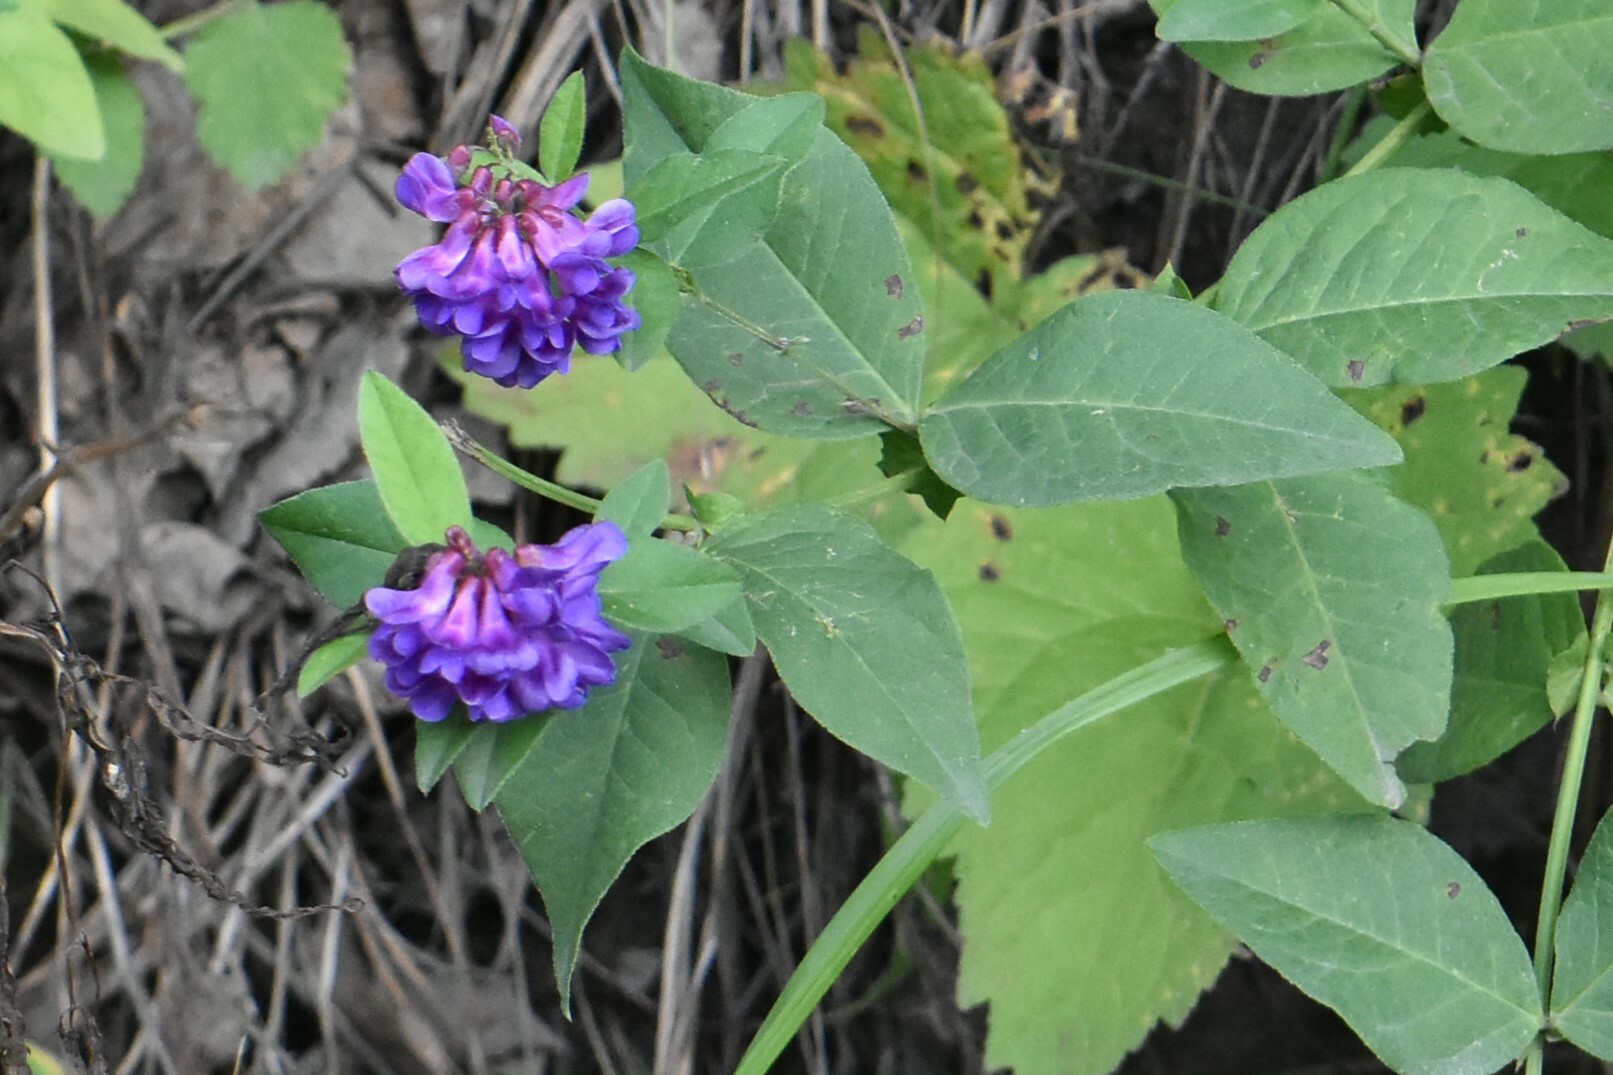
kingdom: Plantae
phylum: Tracheophyta
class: Magnoliopsida
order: Fabales
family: Fabaceae
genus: Vicia
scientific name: Vicia unijuga
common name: Two-leaf vetch
